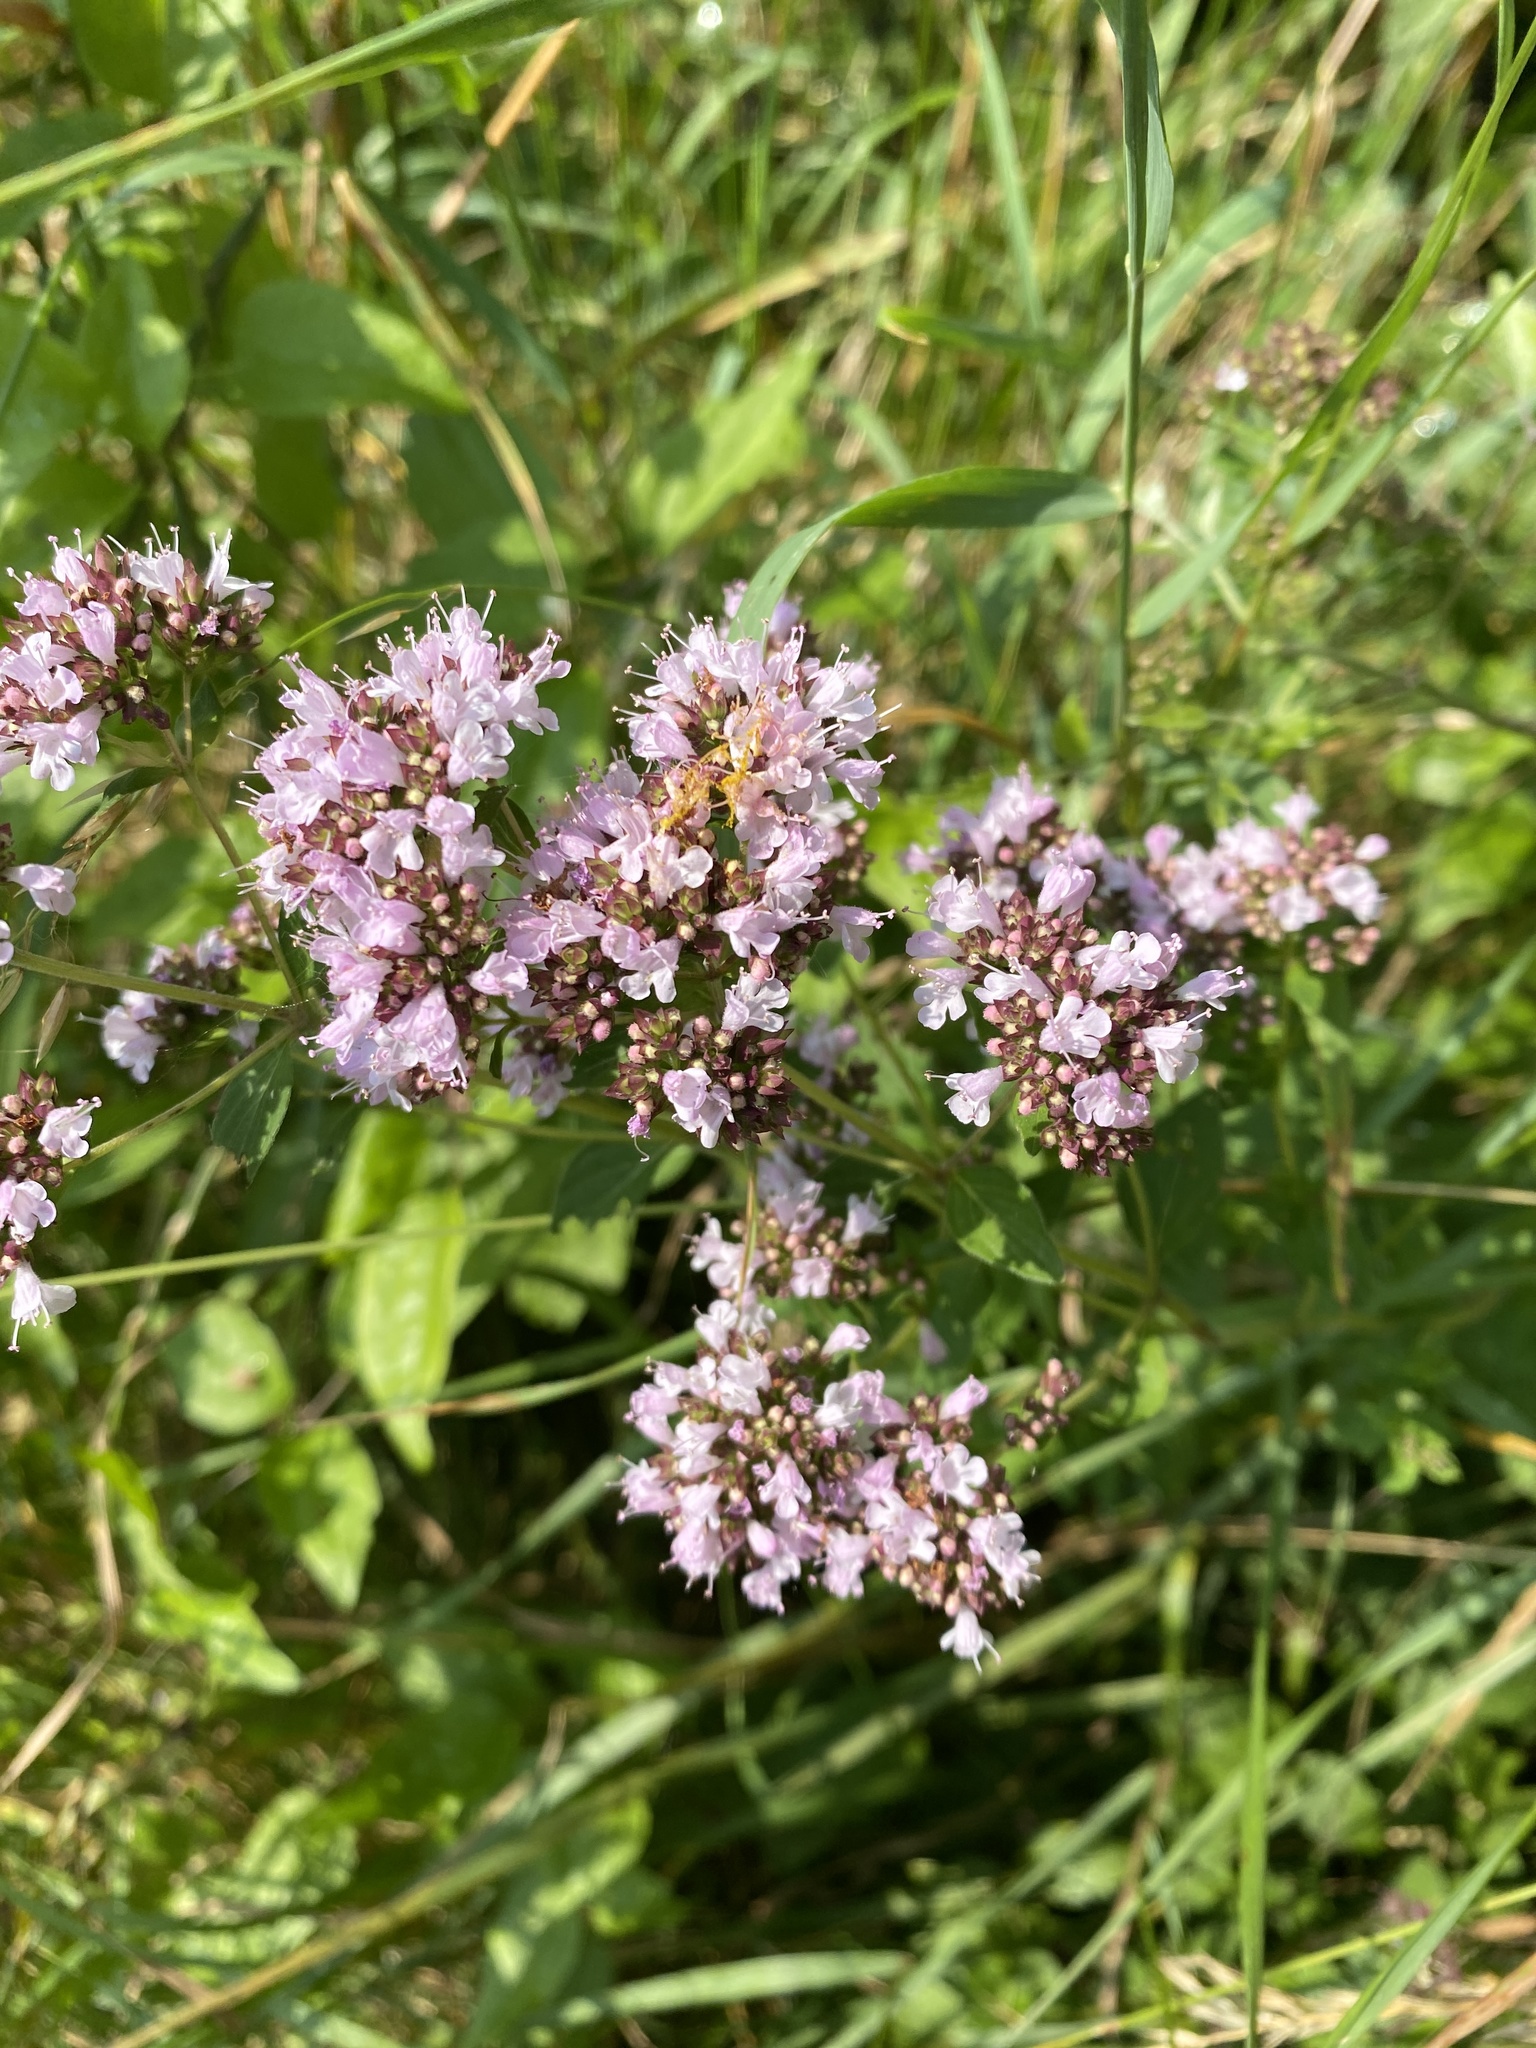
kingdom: Plantae
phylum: Tracheophyta
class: Magnoliopsida
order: Lamiales
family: Lamiaceae
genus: Origanum
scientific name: Origanum vulgare
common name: Wild marjoram
